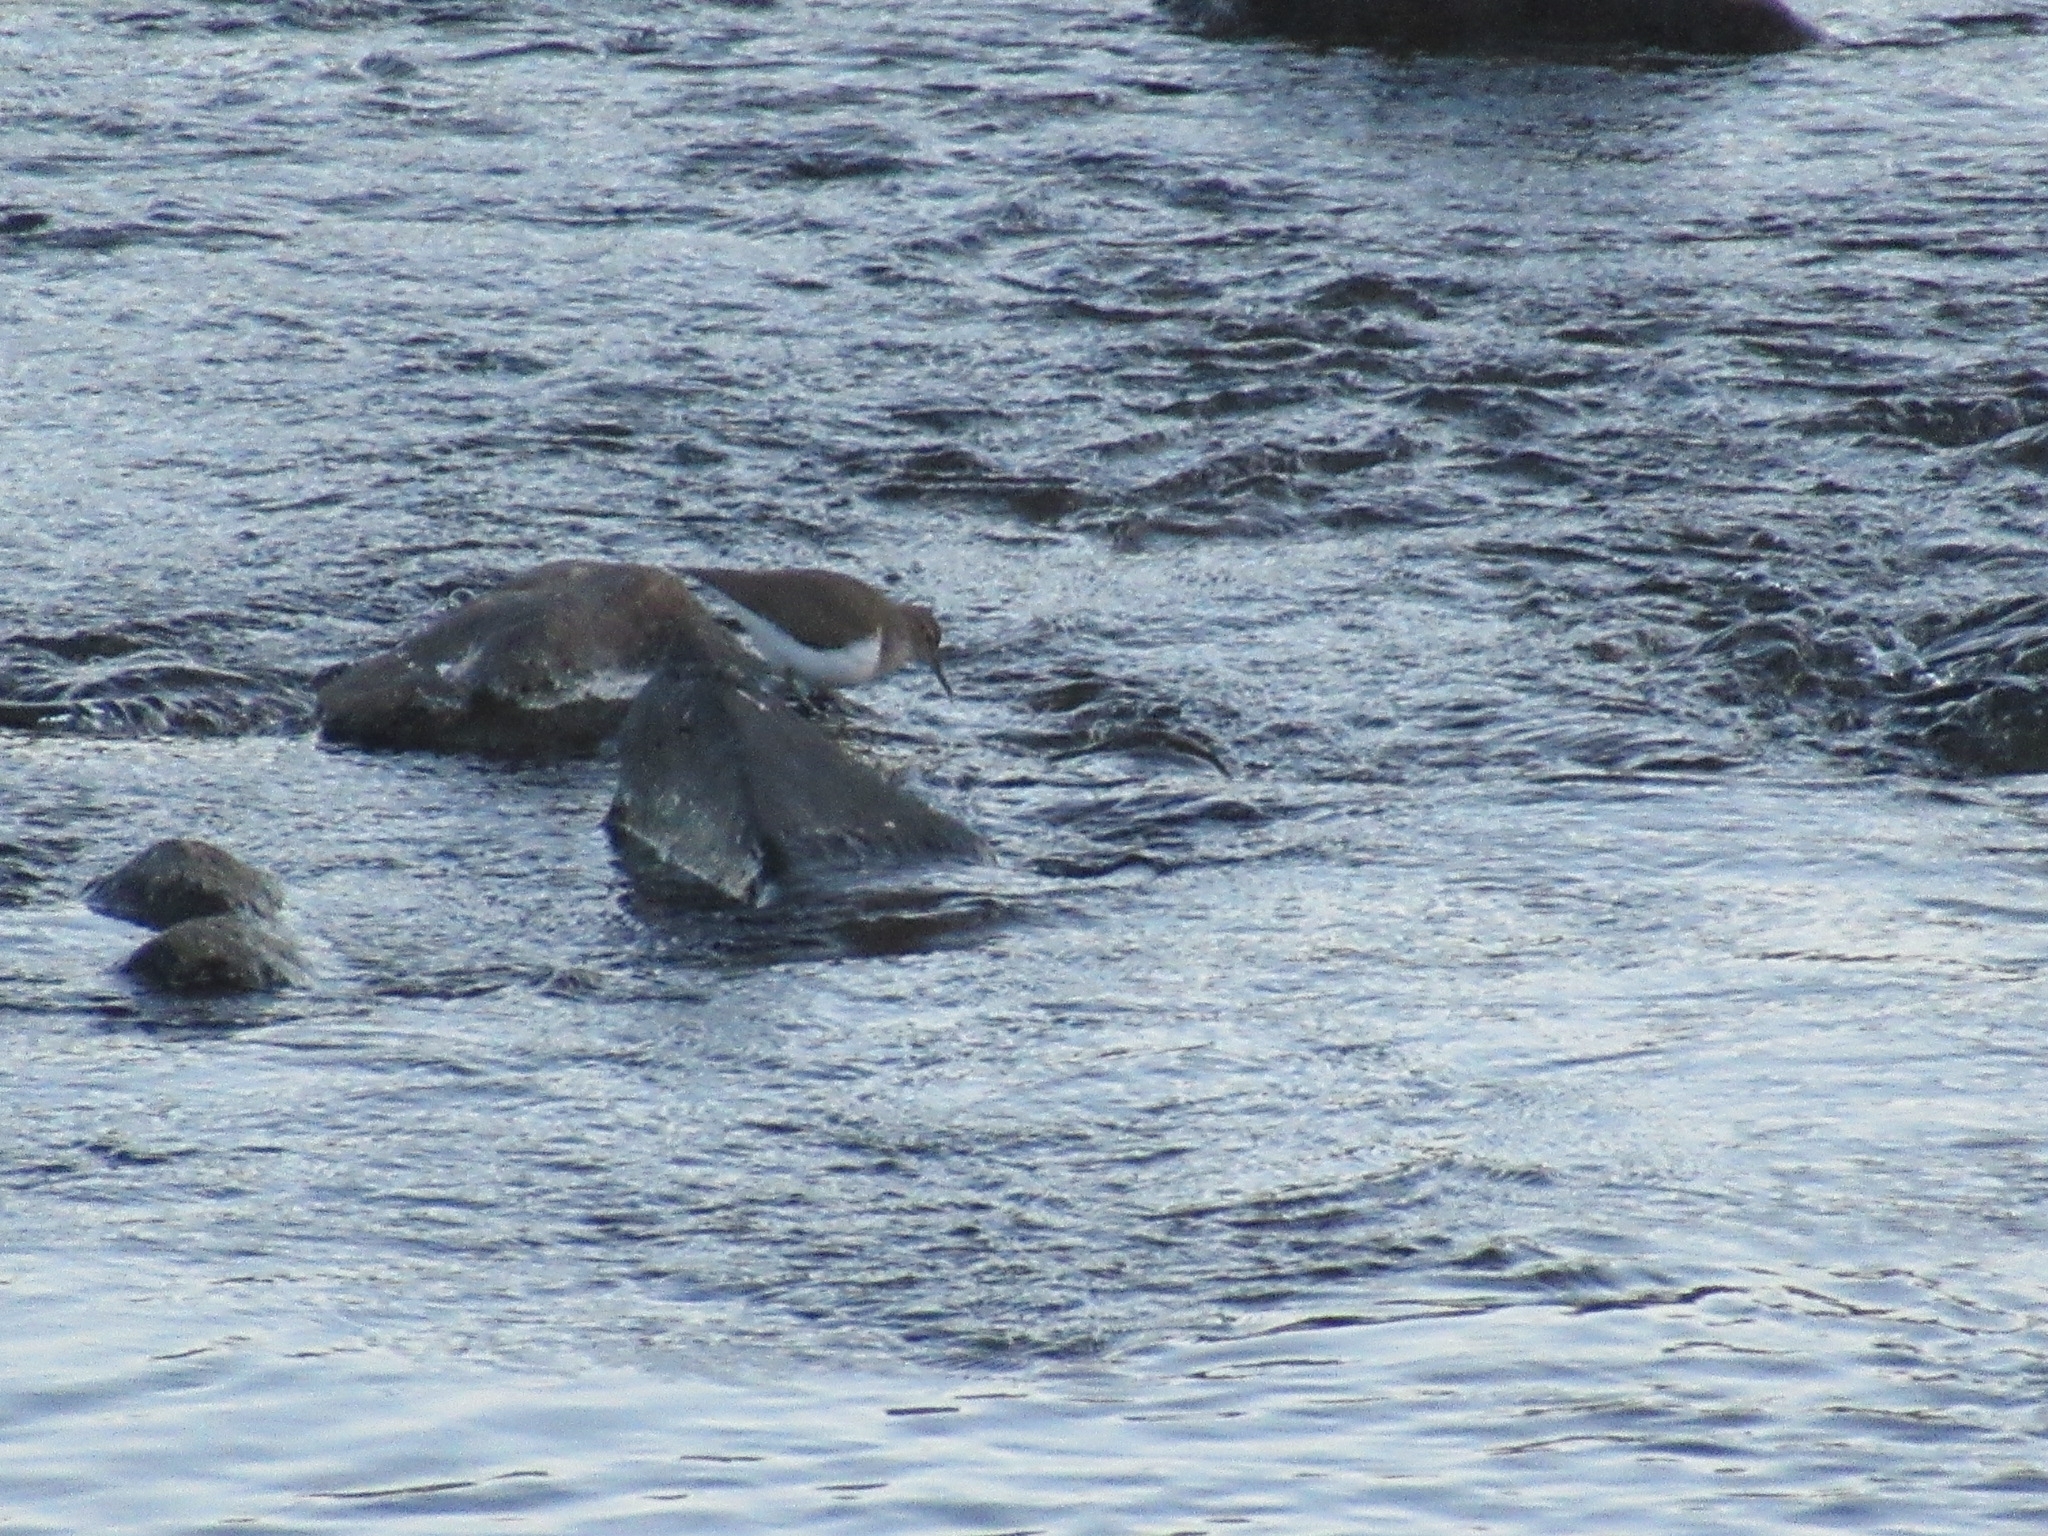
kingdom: Animalia
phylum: Chordata
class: Aves
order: Charadriiformes
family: Scolopacidae
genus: Actitis
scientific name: Actitis hypoleucos
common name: Common sandpiper
